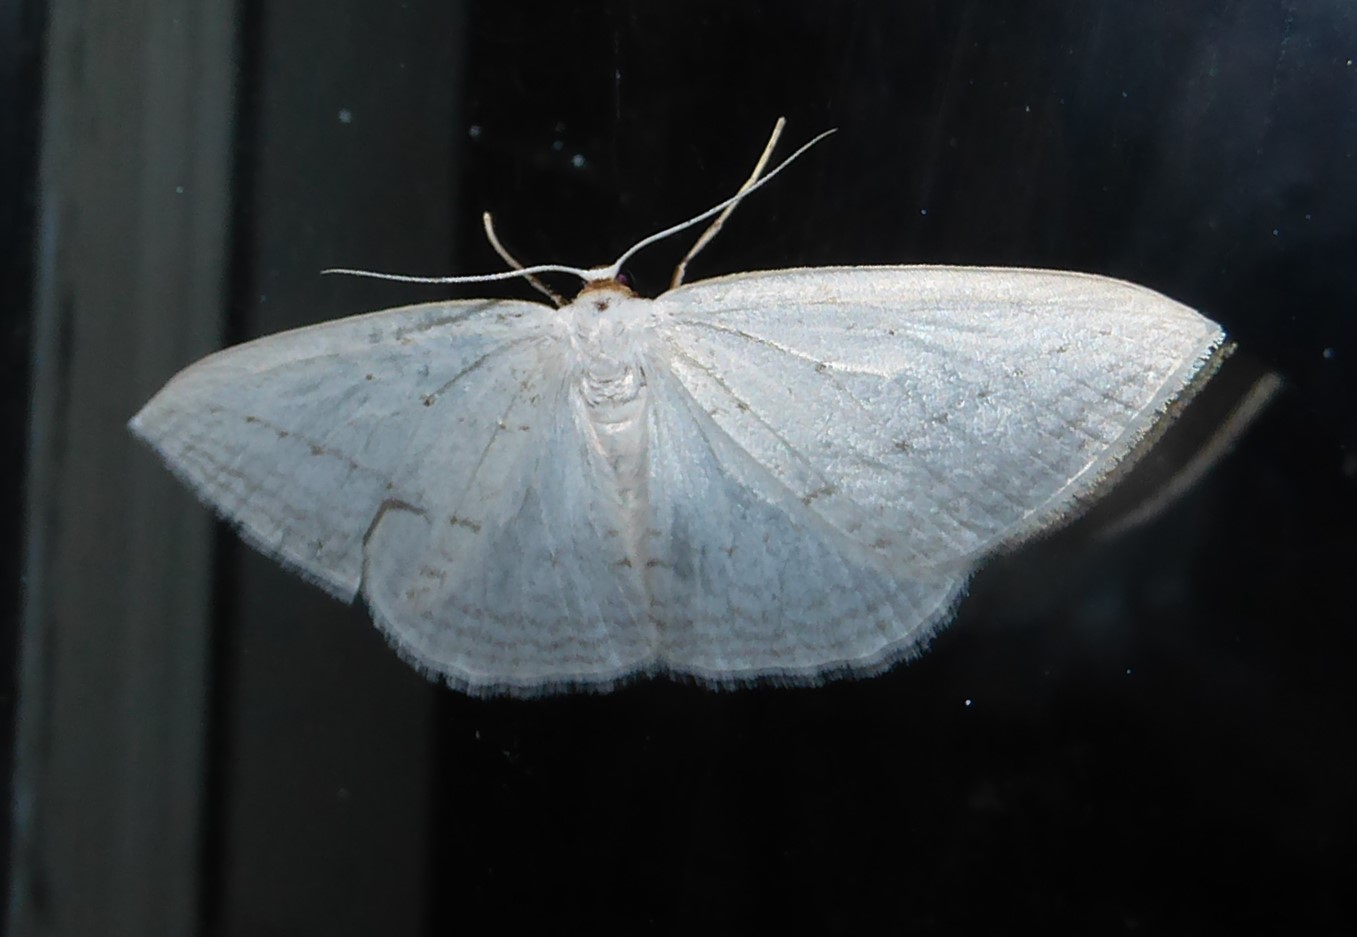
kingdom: Animalia
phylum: Arthropoda
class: Insecta
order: Lepidoptera
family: Geometridae
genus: Orthoclydon
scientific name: Orthoclydon praefectata
